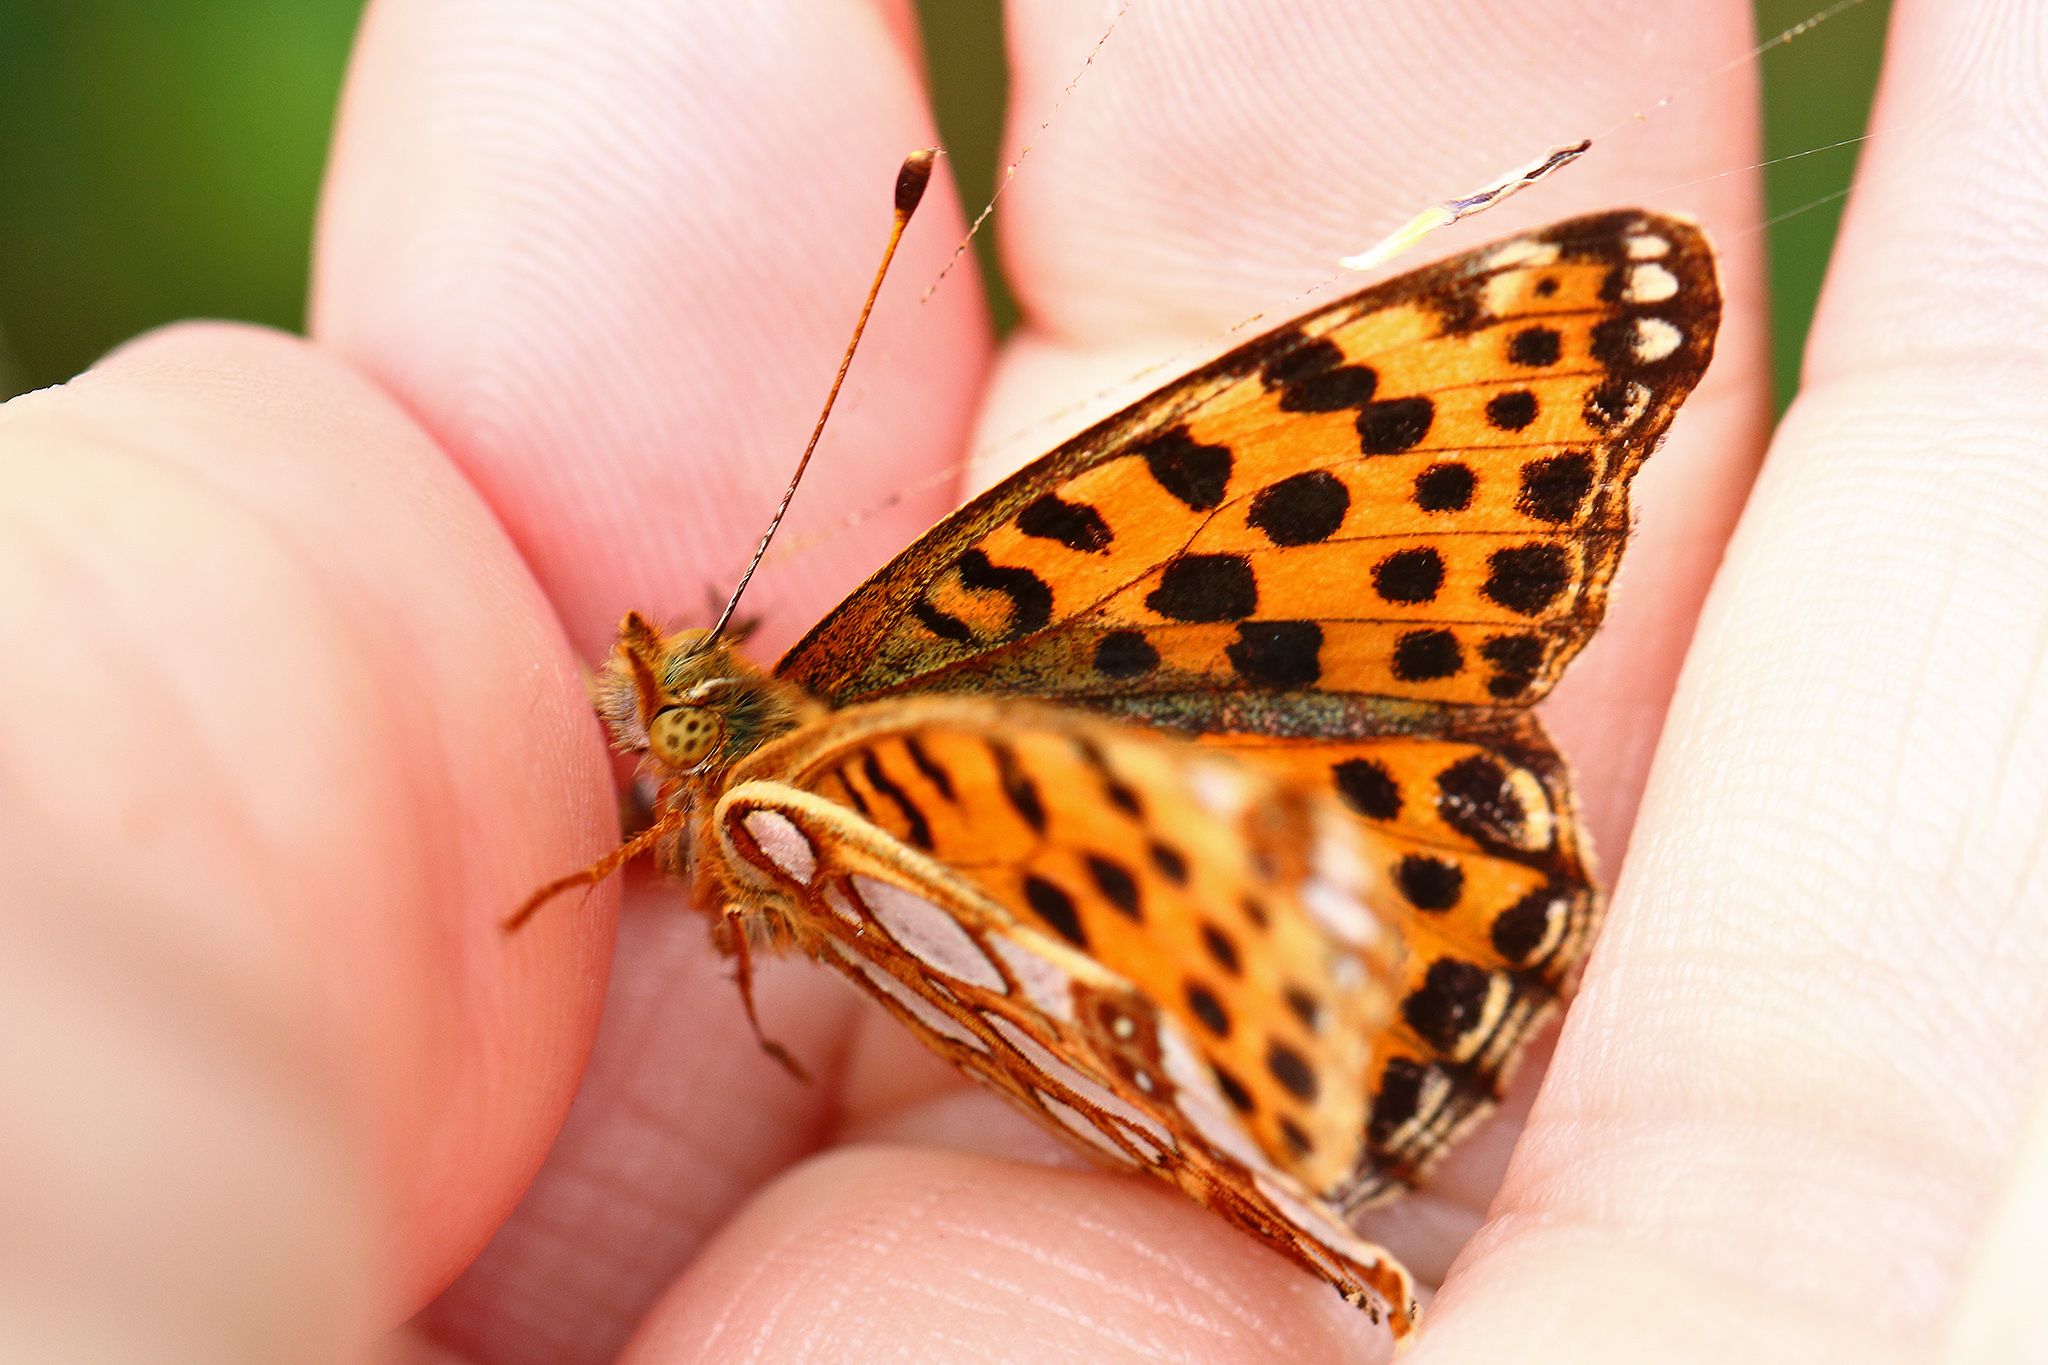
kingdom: Animalia
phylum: Arthropoda
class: Insecta
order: Lepidoptera
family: Nymphalidae
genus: Issoria
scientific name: Issoria lathonia
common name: Queen of spain fritillary
